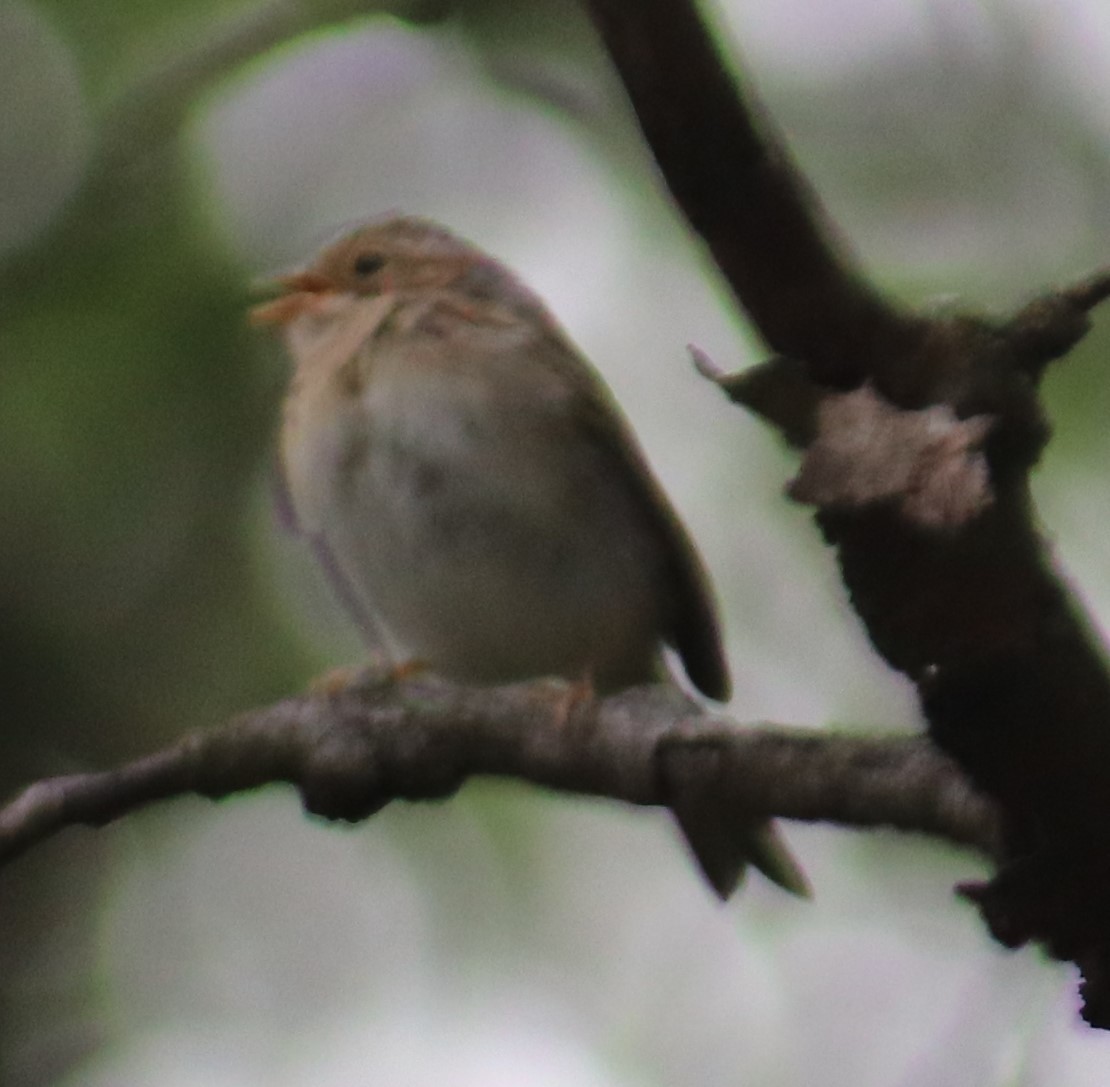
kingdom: Animalia
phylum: Chordata
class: Aves
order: Passeriformes
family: Passerellidae
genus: Spizella
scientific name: Spizella pallida
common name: Clay-colored sparrow
